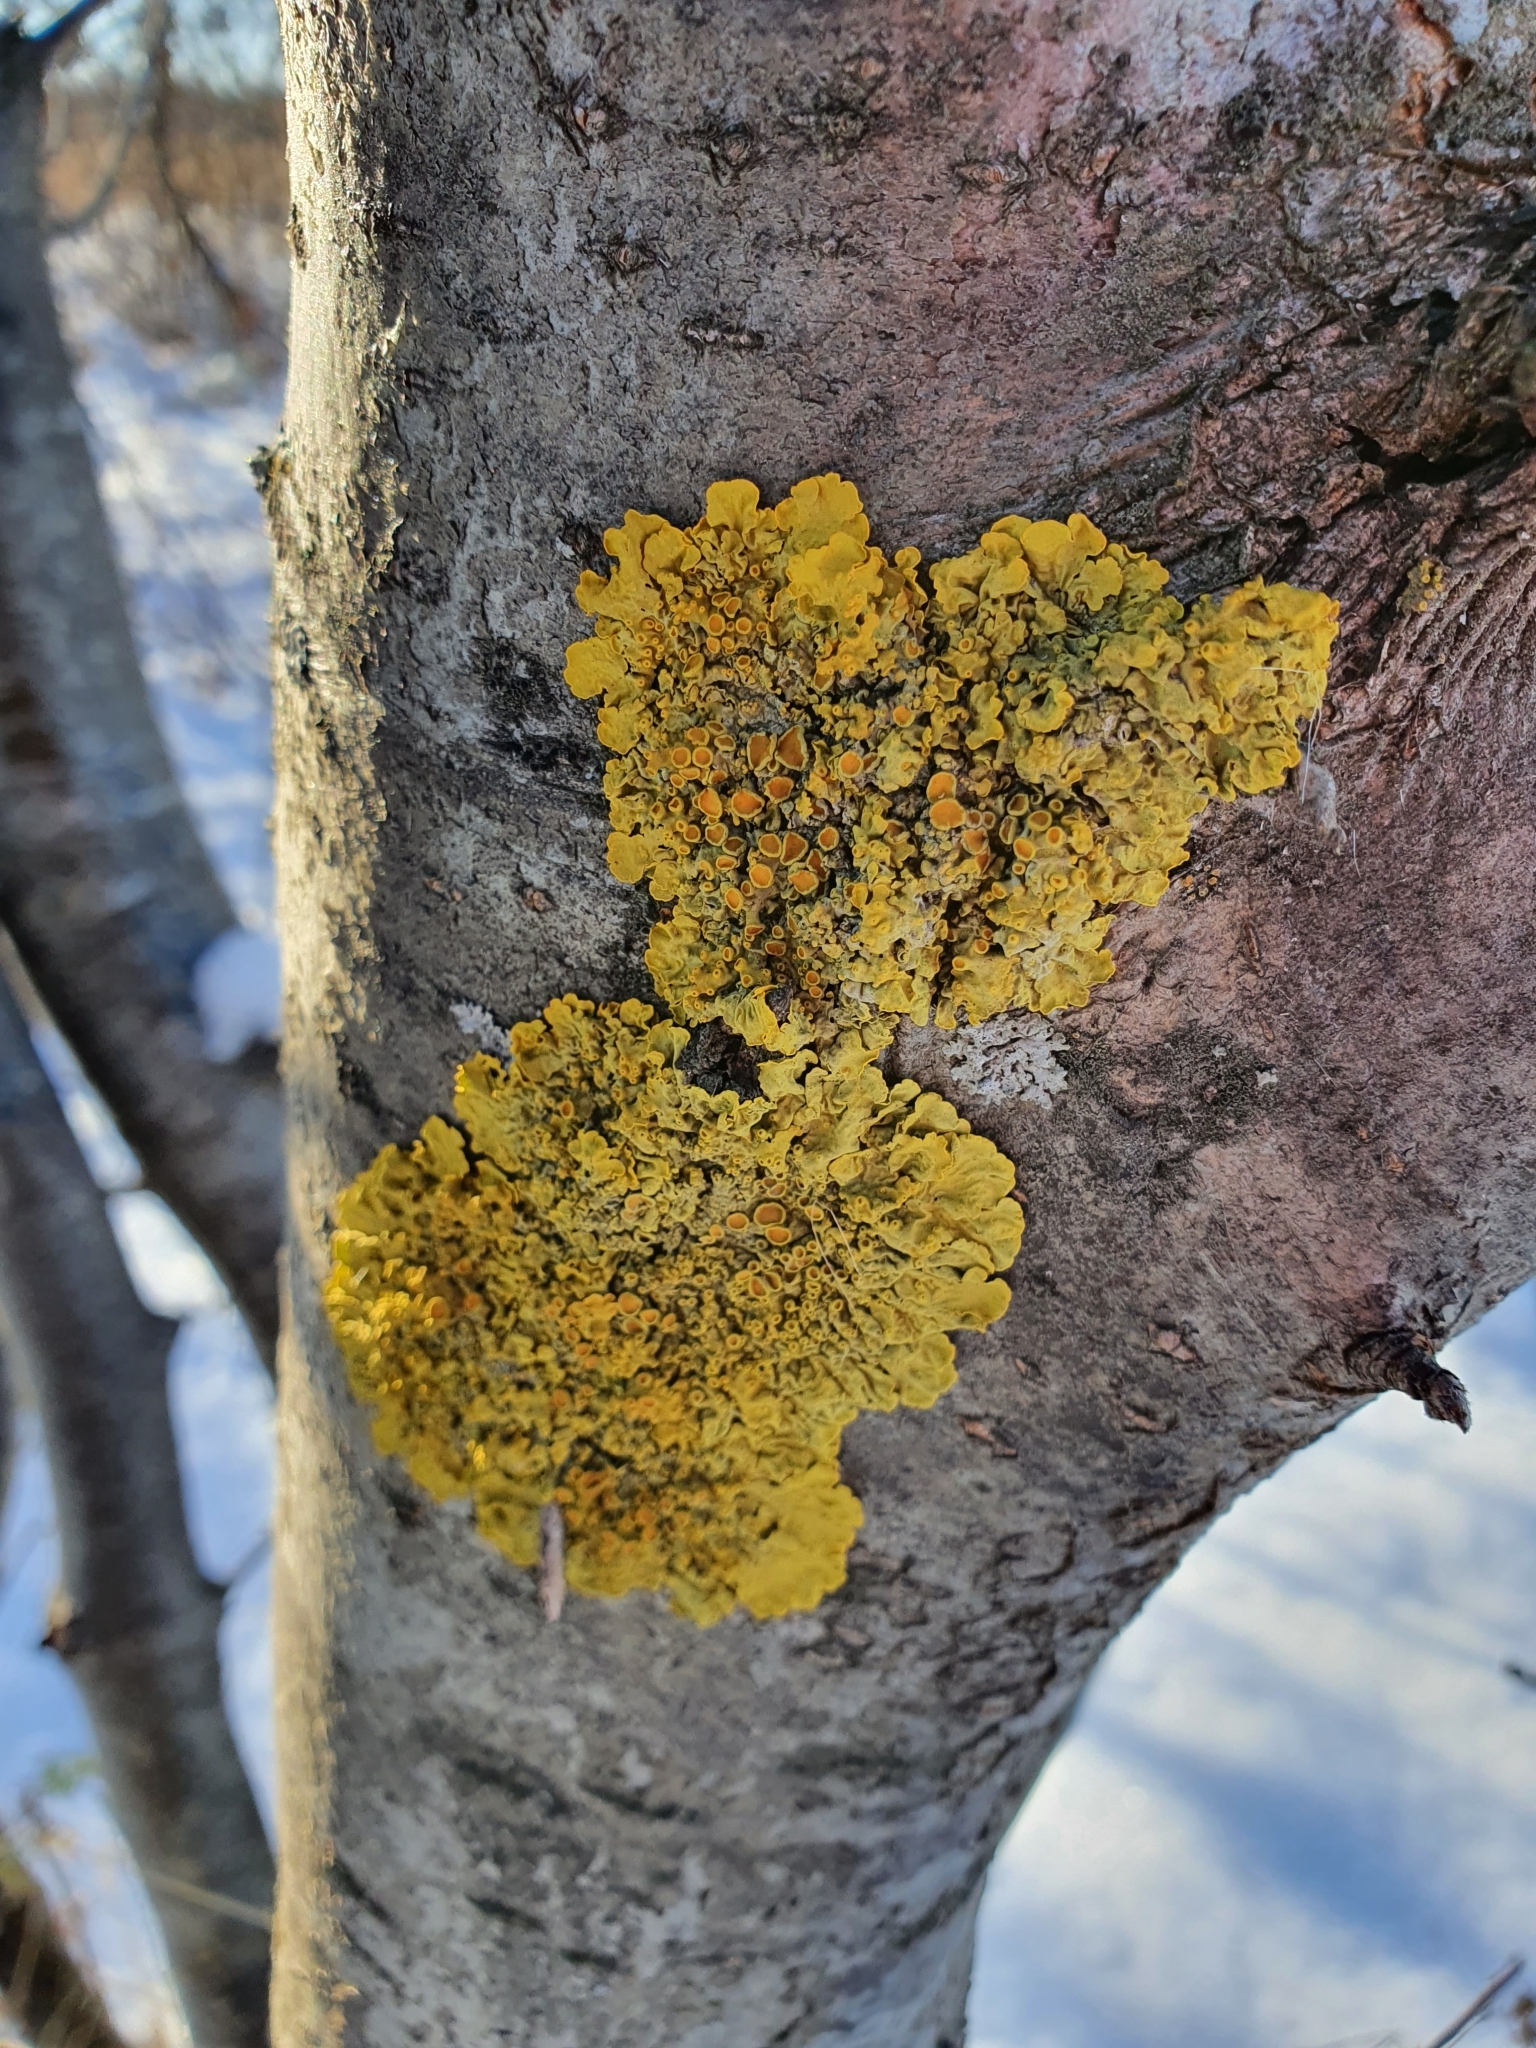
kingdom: Fungi
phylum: Ascomycota
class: Lecanoromycetes
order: Teloschistales
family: Teloschistaceae
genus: Xanthoria
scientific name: Xanthoria parietina
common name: Common orange lichen
